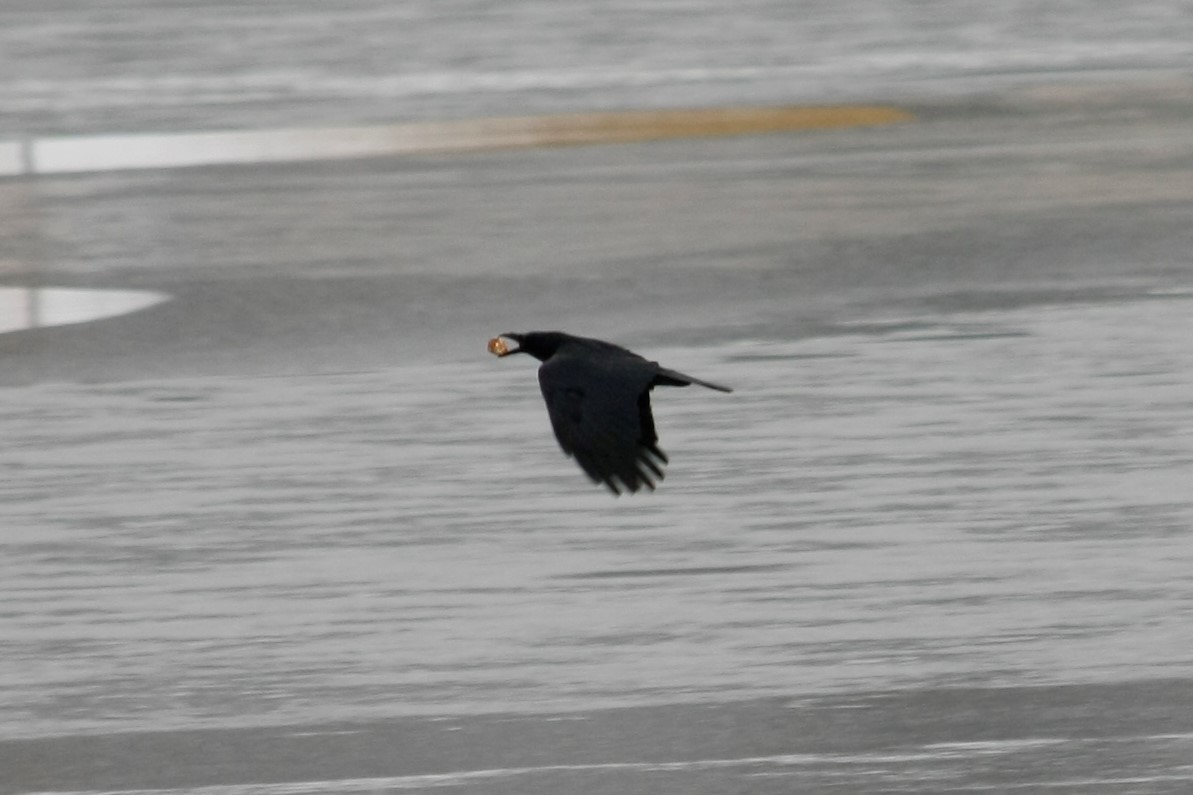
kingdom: Animalia
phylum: Chordata
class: Aves
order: Passeriformes
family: Corvidae
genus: Corvus
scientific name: Corvus corone
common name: Carrion crow
